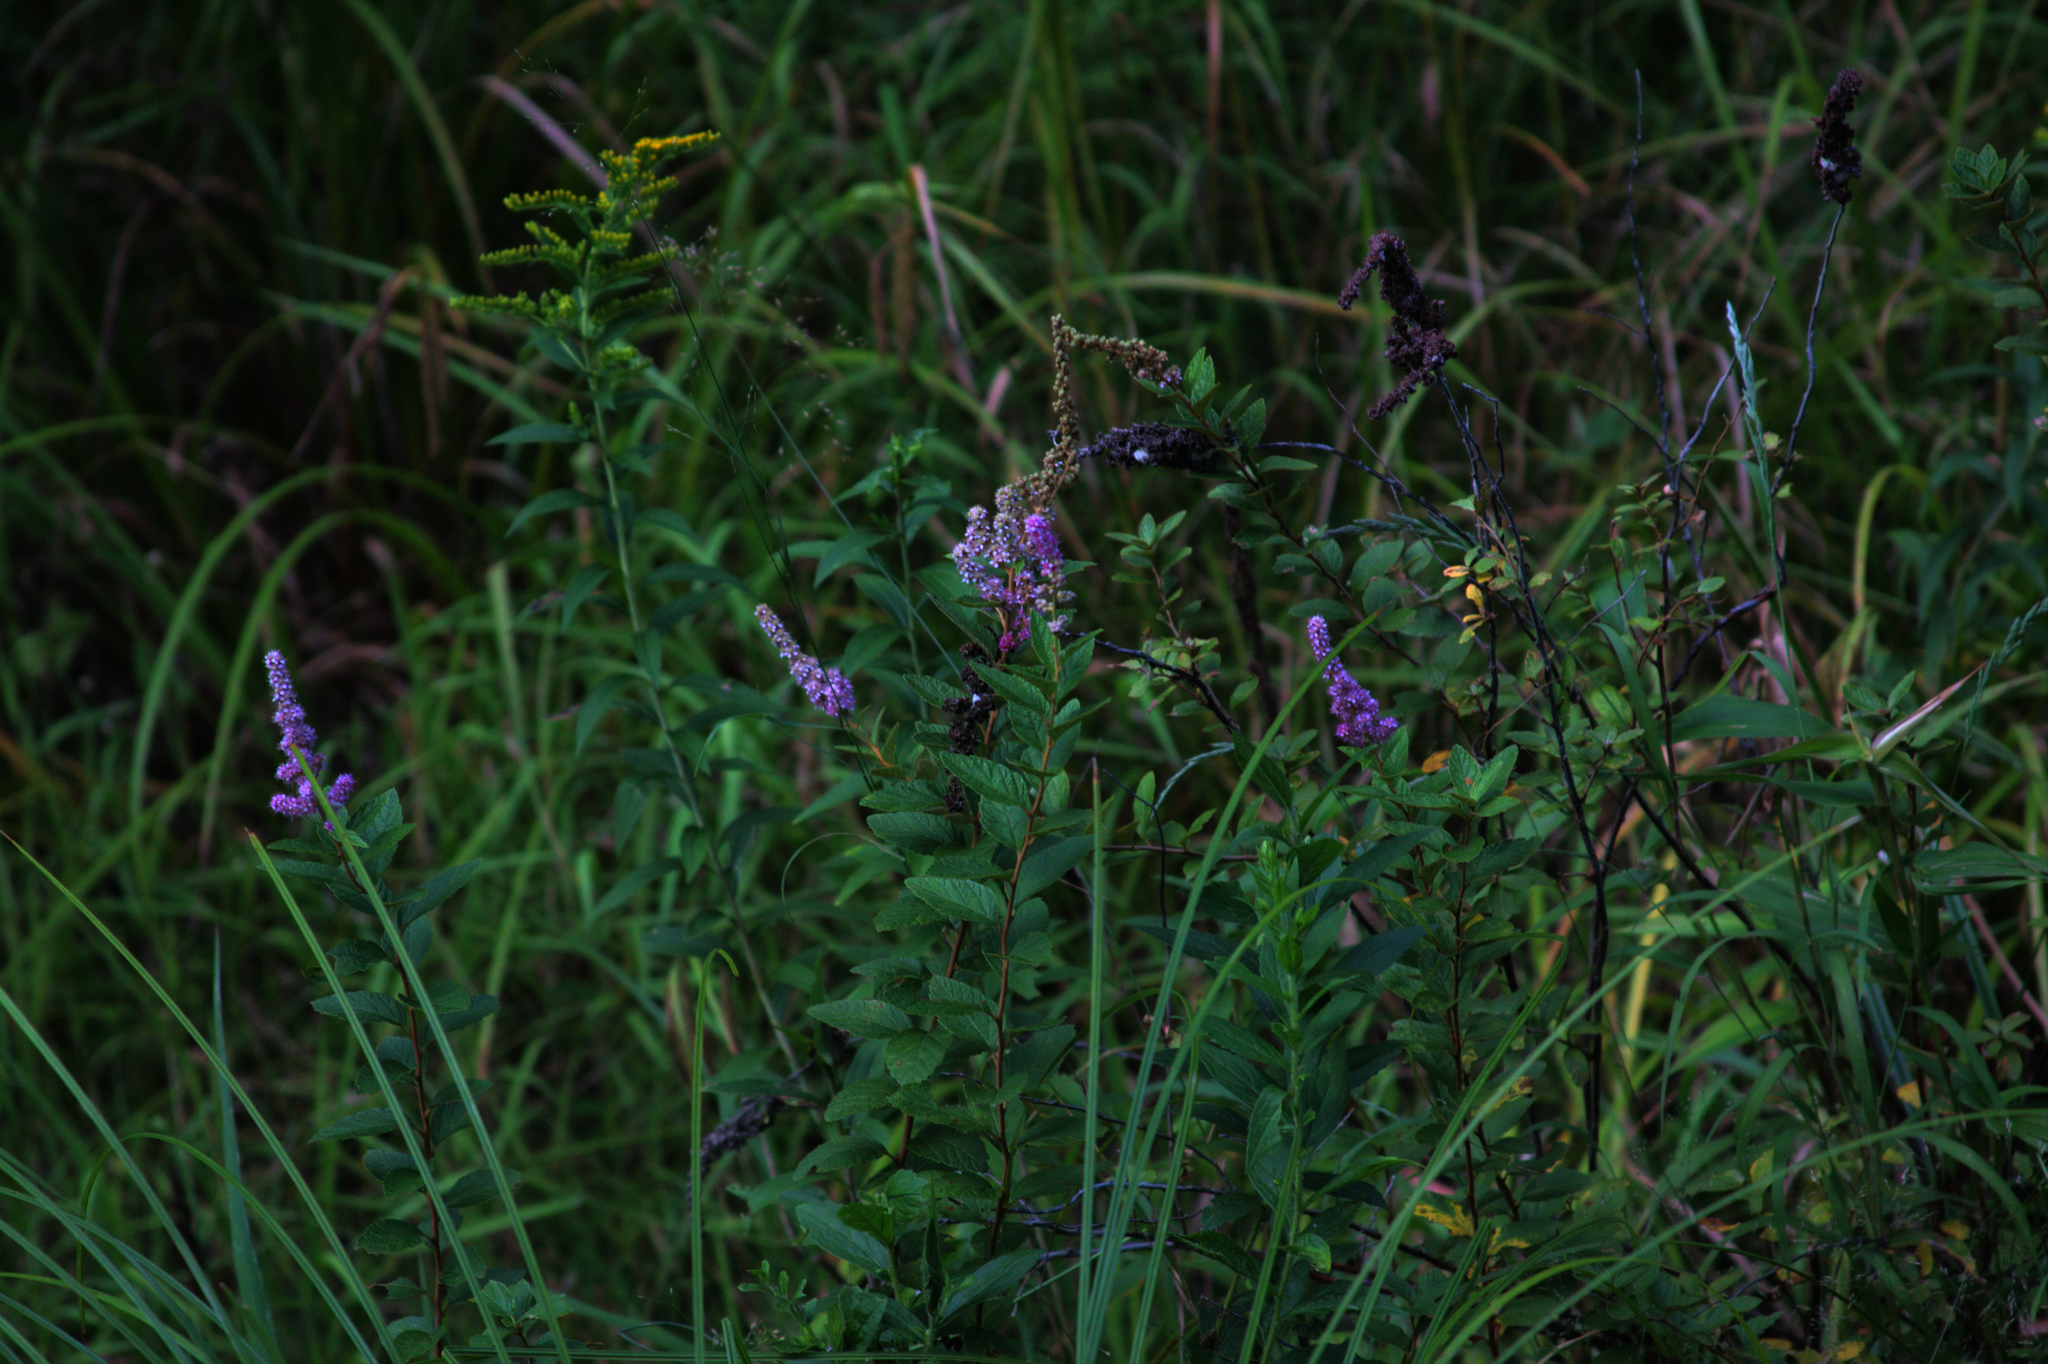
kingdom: Plantae
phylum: Tracheophyta
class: Magnoliopsida
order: Rosales
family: Rosaceae
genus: Spiraea
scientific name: Spiraea tomentosa
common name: Hardhack
